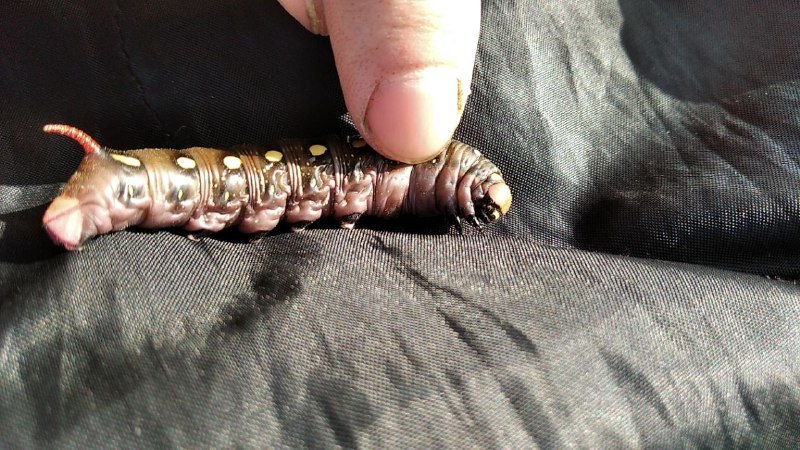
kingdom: Animalia
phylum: Arthropoda
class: Insecta
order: Lepidoptera
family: Sphingidae
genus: Hyles
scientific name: Hyles gallii
